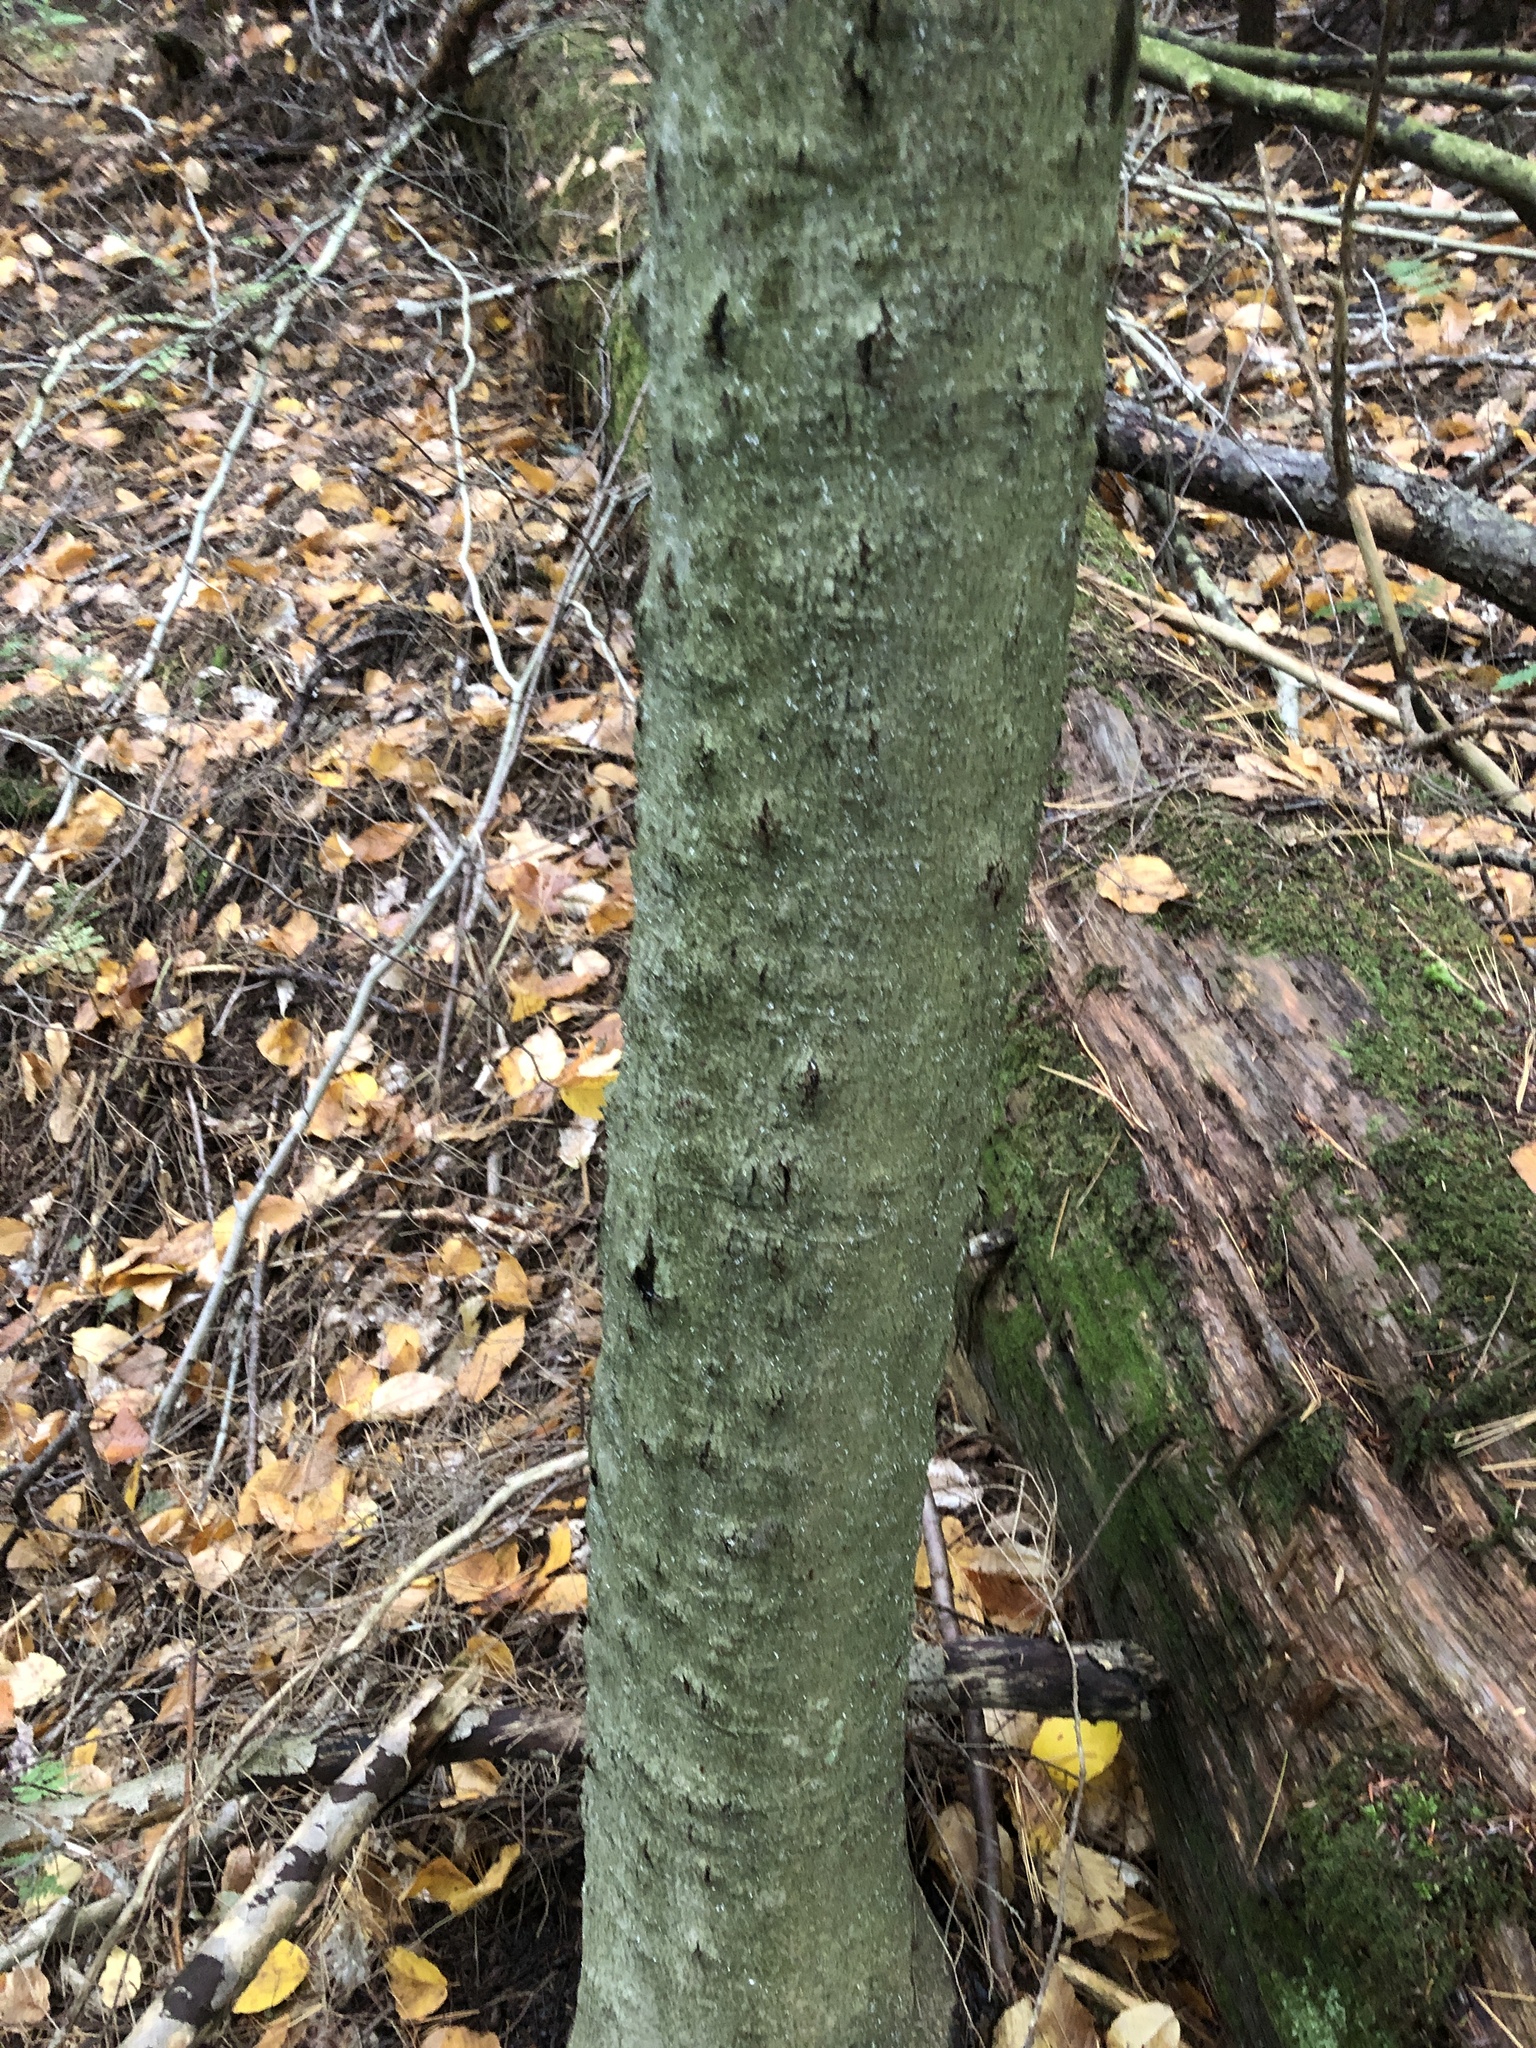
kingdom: Fungi
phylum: Ascomycota
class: Sordariomycetes
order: Hypocreales
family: Nectriaceae
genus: Neonectria
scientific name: Neonectria faginata
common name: Beech bark canker
